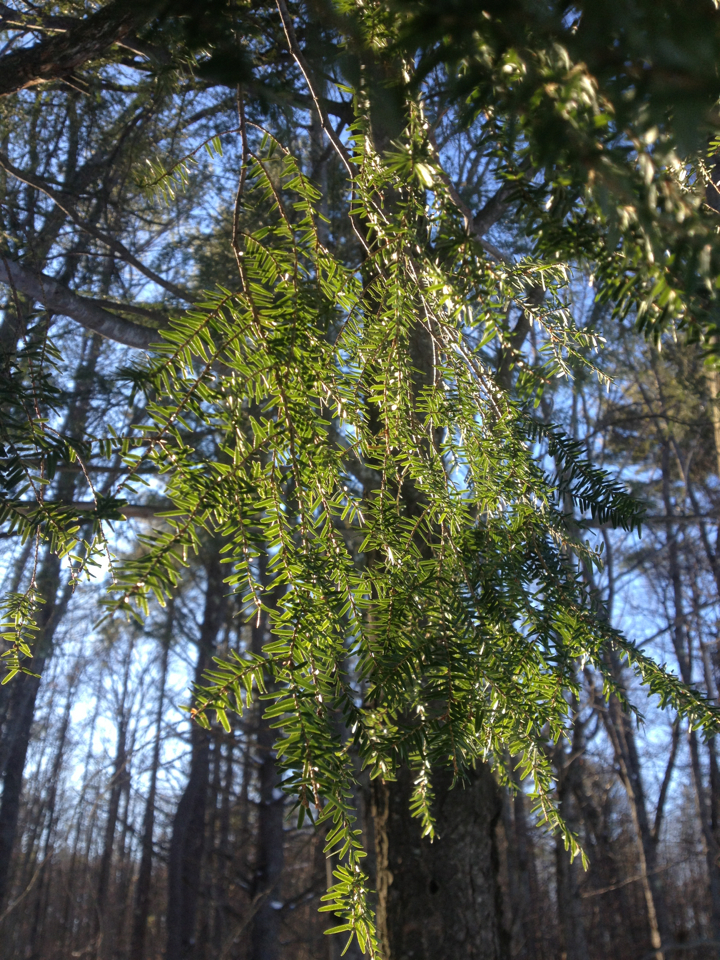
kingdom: Plantae
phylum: Tracheophyta
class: Pinopsida
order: Pinales
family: Pinaceae
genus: Tsuga
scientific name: Tsuga canadensis
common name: Eastern hemlock
